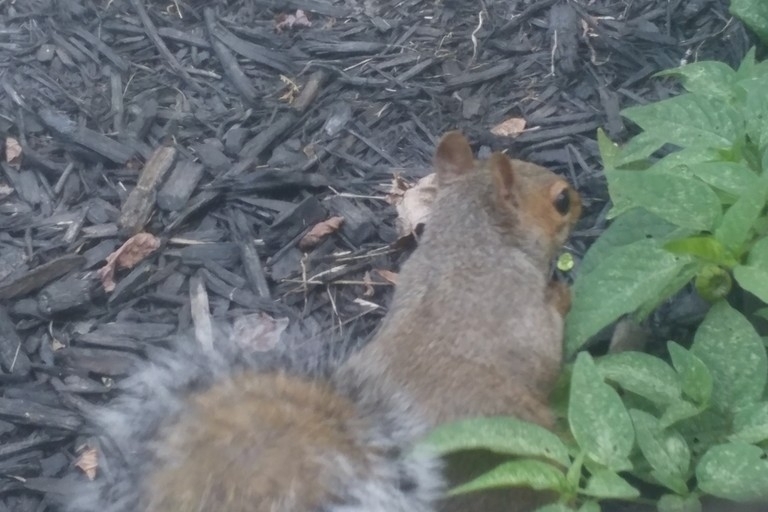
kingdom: Animalia
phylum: Chordata
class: Mammalia
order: Rodentia
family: Sciuridae
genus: Sciurus
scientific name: Sciurus carolinensis
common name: Eastern gray squirrel
